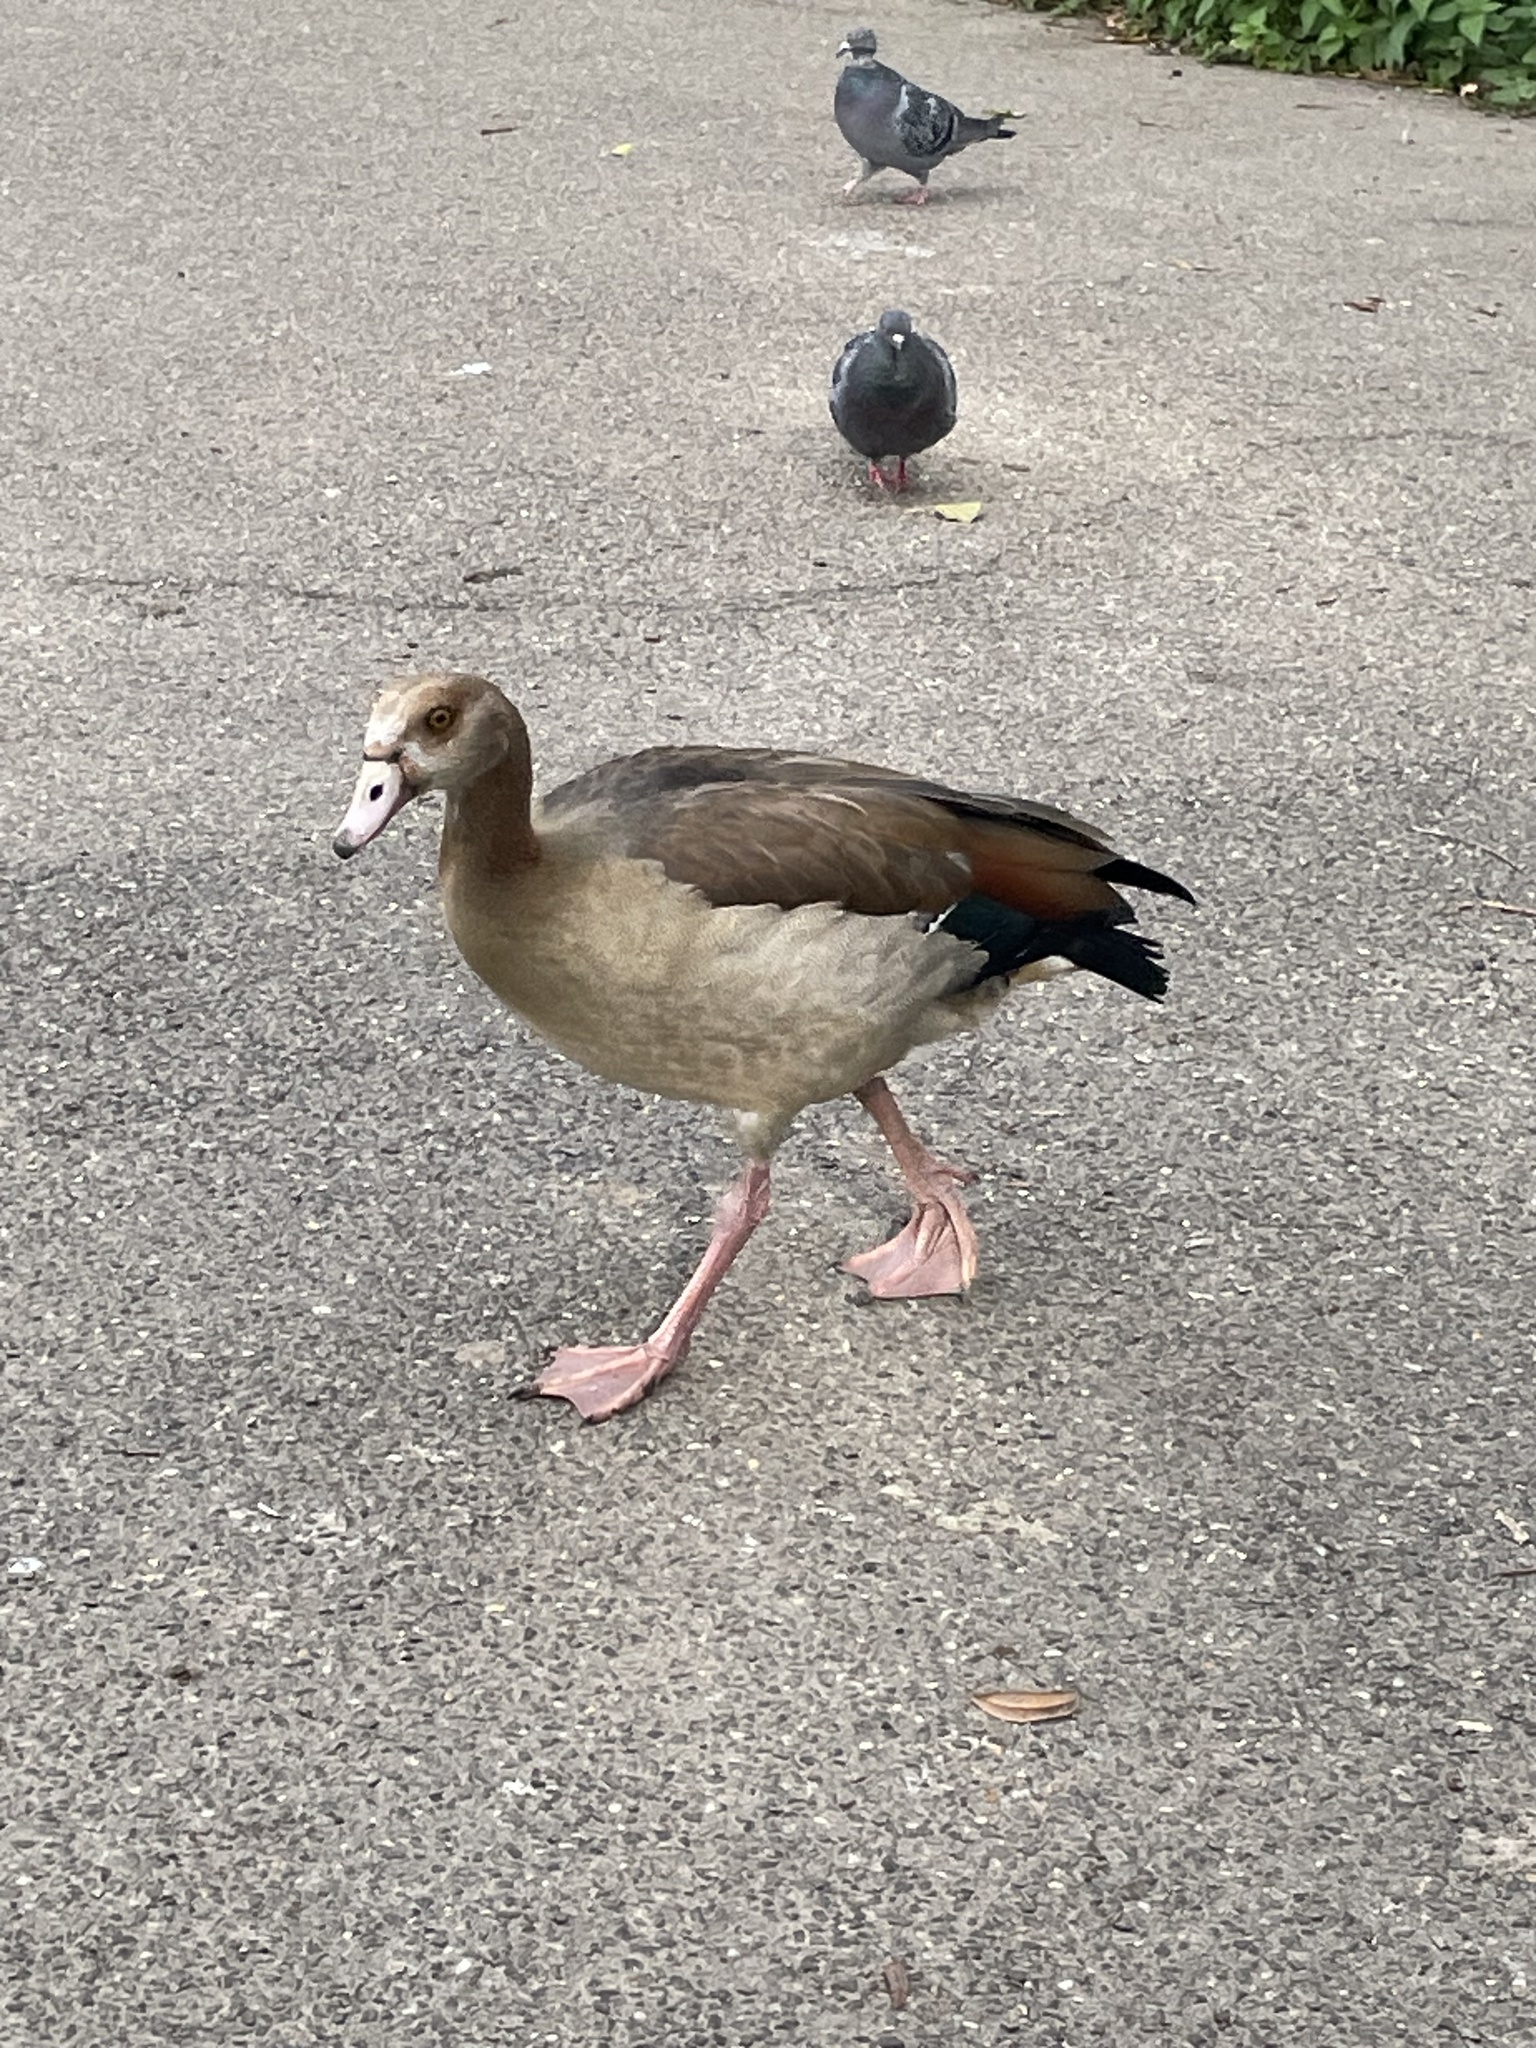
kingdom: Animalia
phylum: Chordata
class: Aves
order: Anseriformes
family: Anatidae
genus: Alopochen
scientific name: Alopochen aegyptiaca
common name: Egyptian goose
